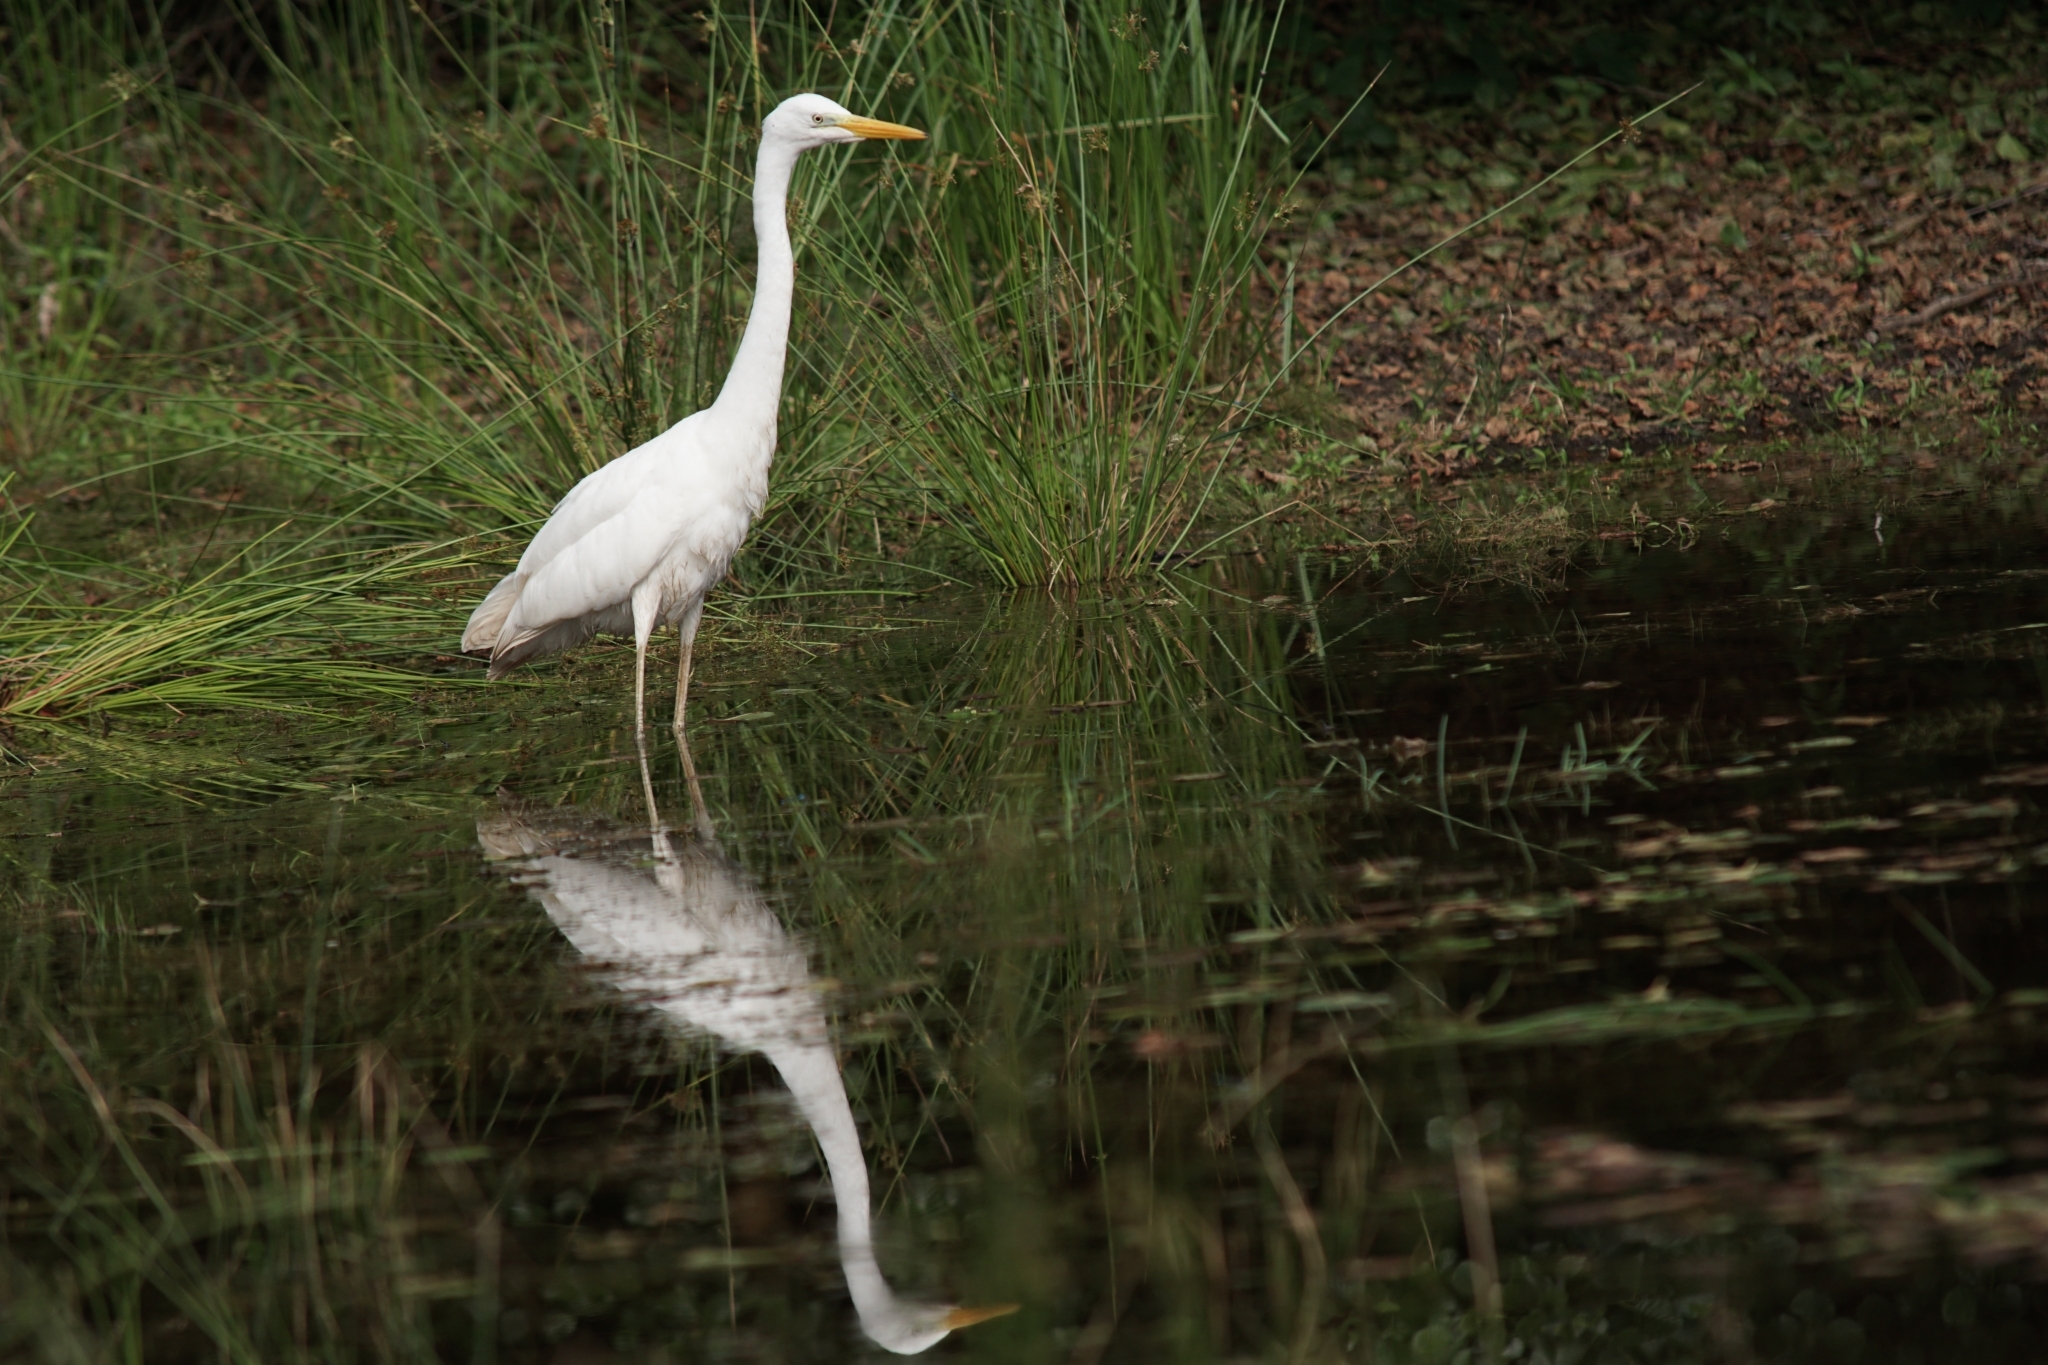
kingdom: Animalia
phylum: Chordata
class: Aves
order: Pelecaniformes
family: Ardeidae
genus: Ardea
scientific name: Ardea alba
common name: Great egret
